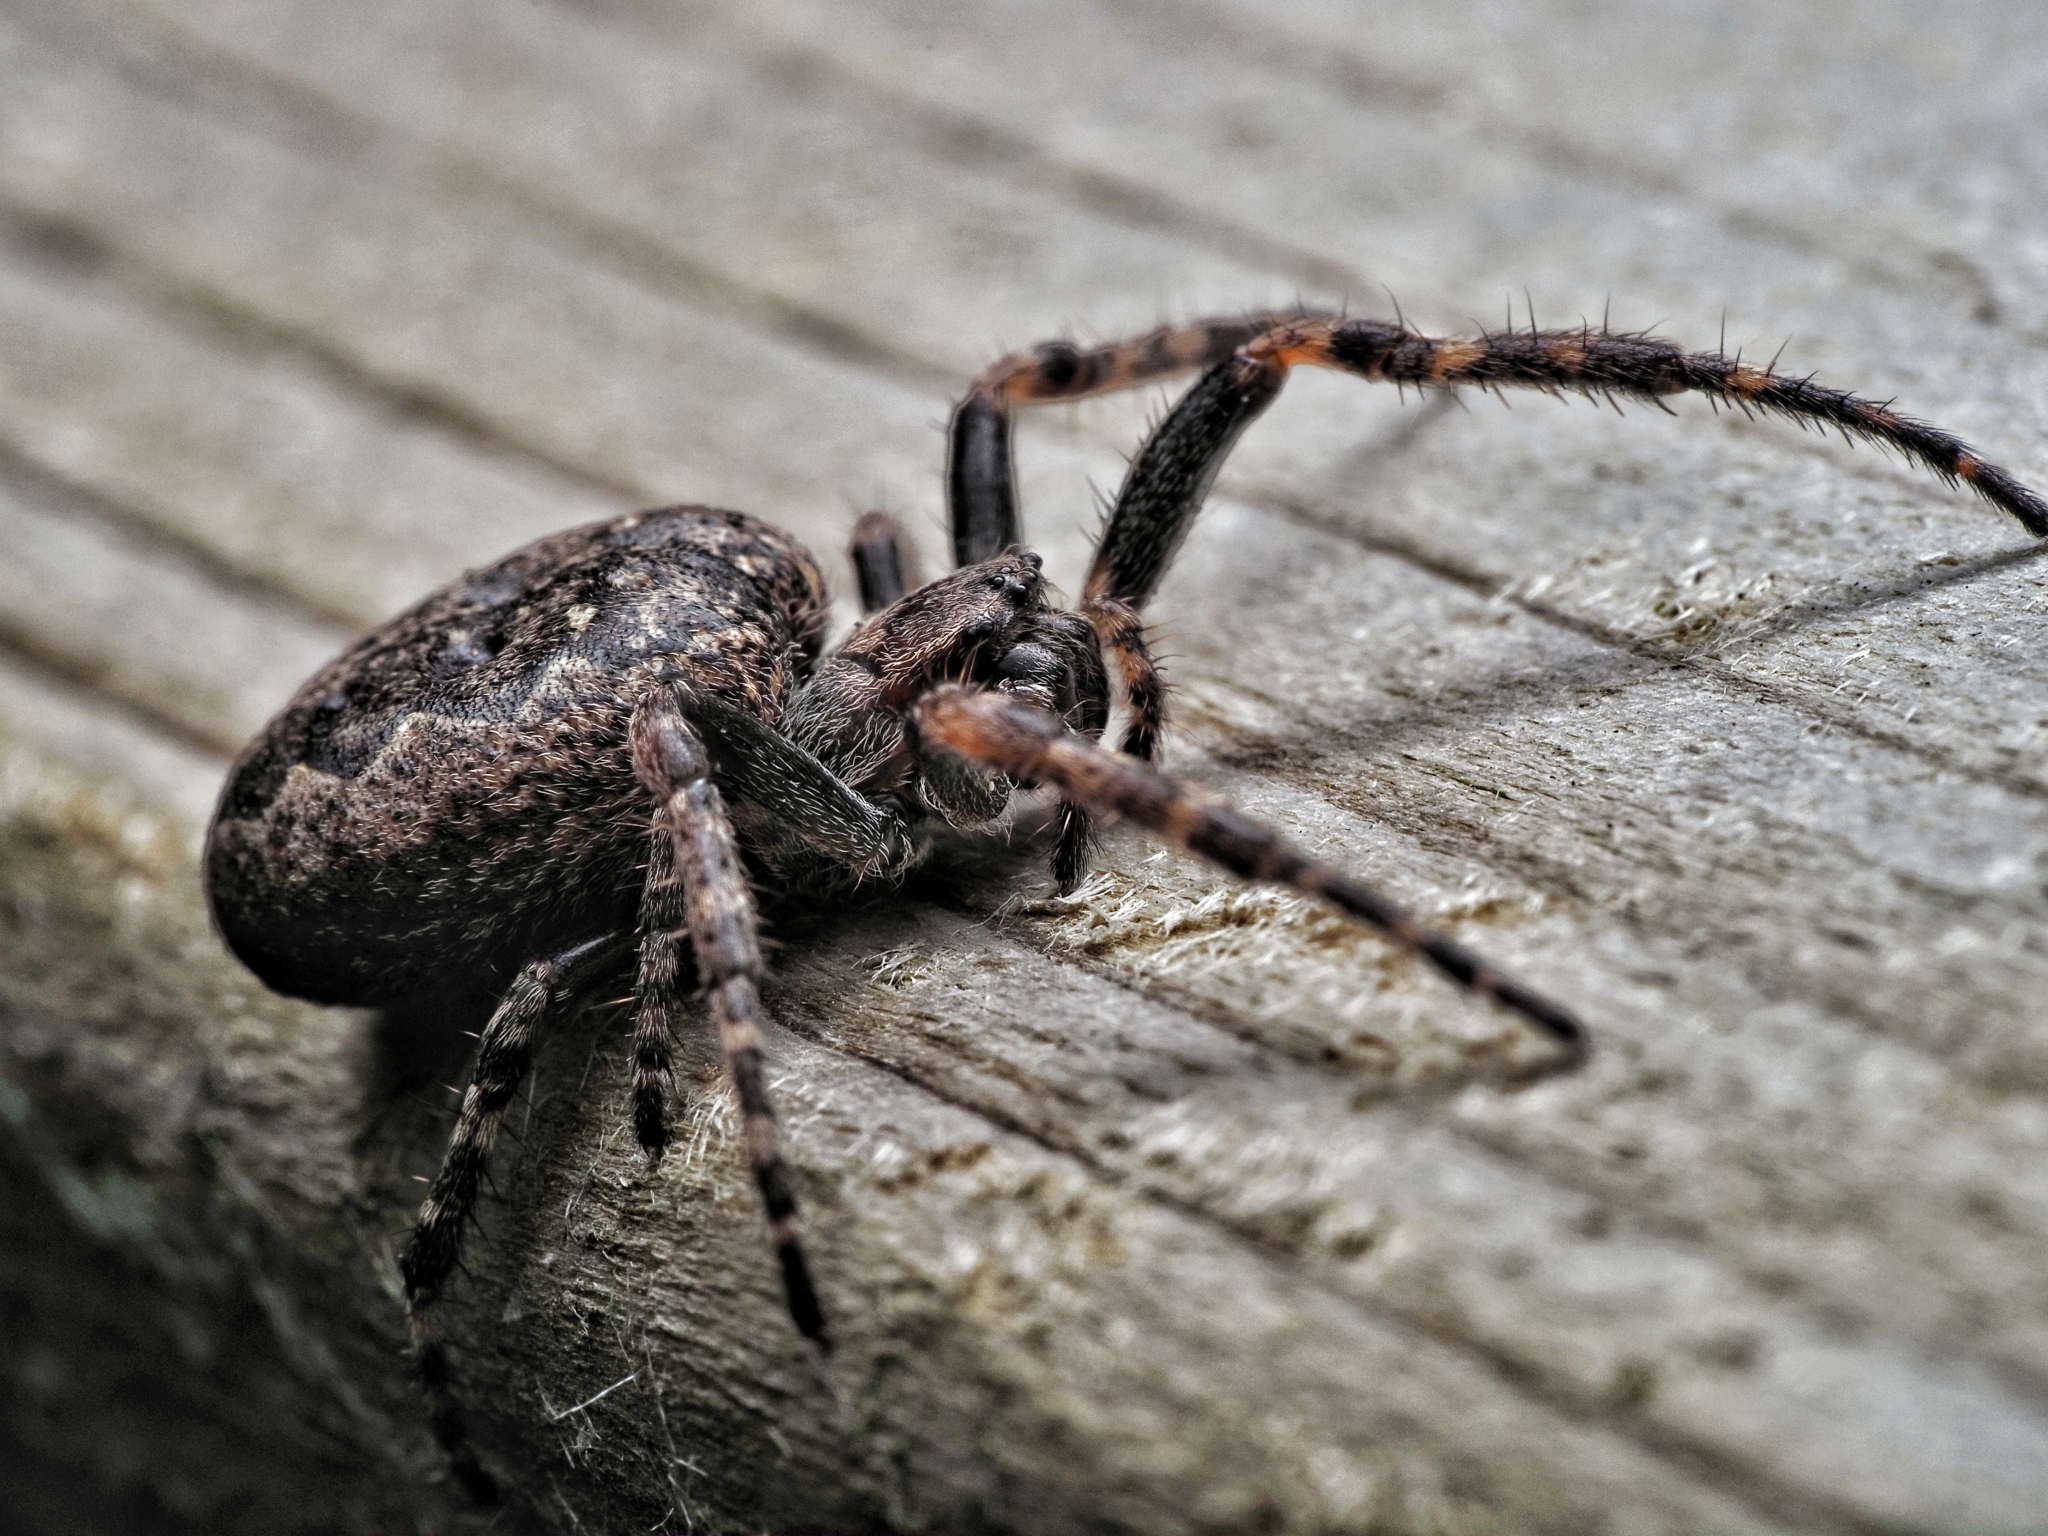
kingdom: Animalia
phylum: Arthropoda
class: Arachnida
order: Araneae
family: Araneidae
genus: Nuctenea
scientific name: Nuctenea umbratica
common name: Toad spider
